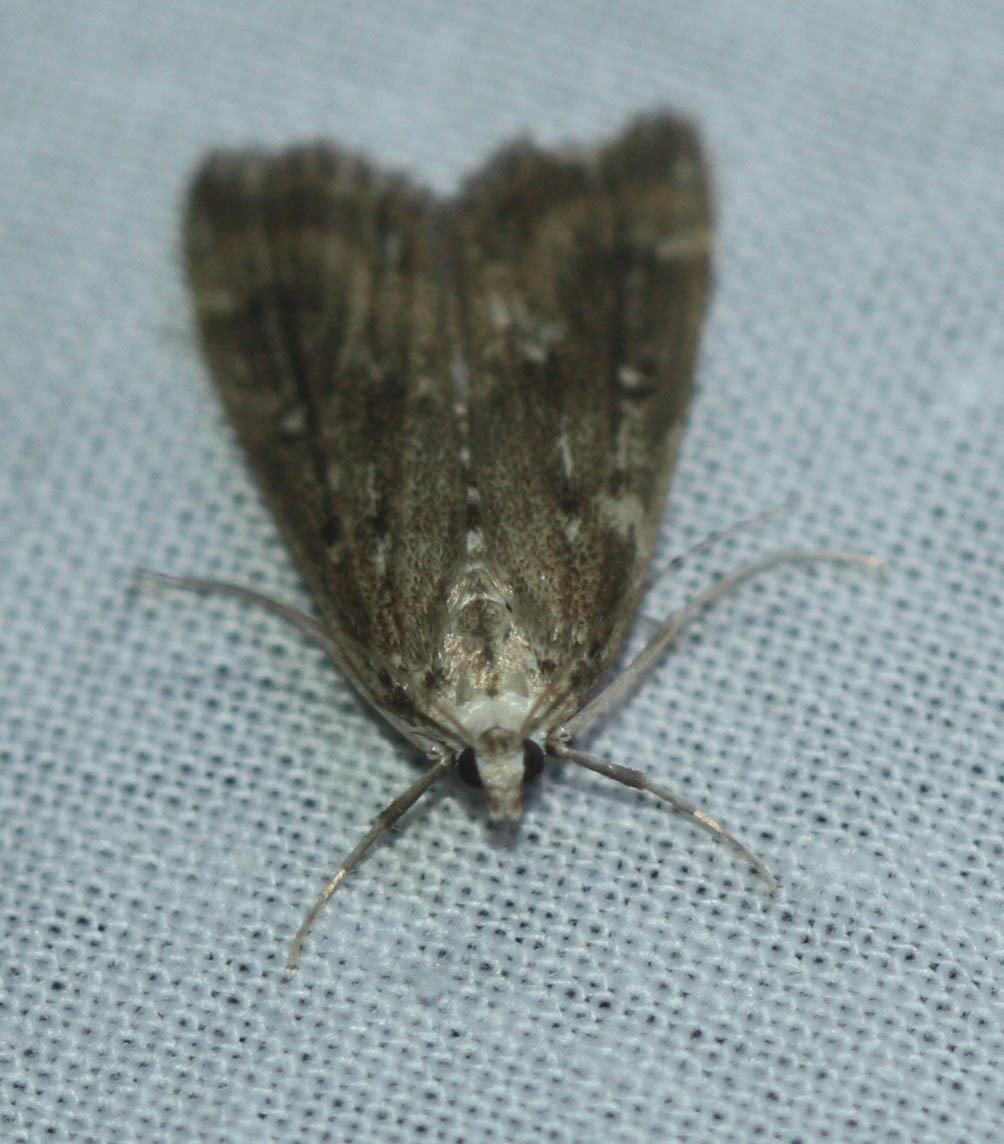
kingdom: Animalia
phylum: Arthropoda
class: Insecta
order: Lepidoptera
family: Crambidae
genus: Parapoynx
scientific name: Parapoynx stratiotata
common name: Ringed china-mark
